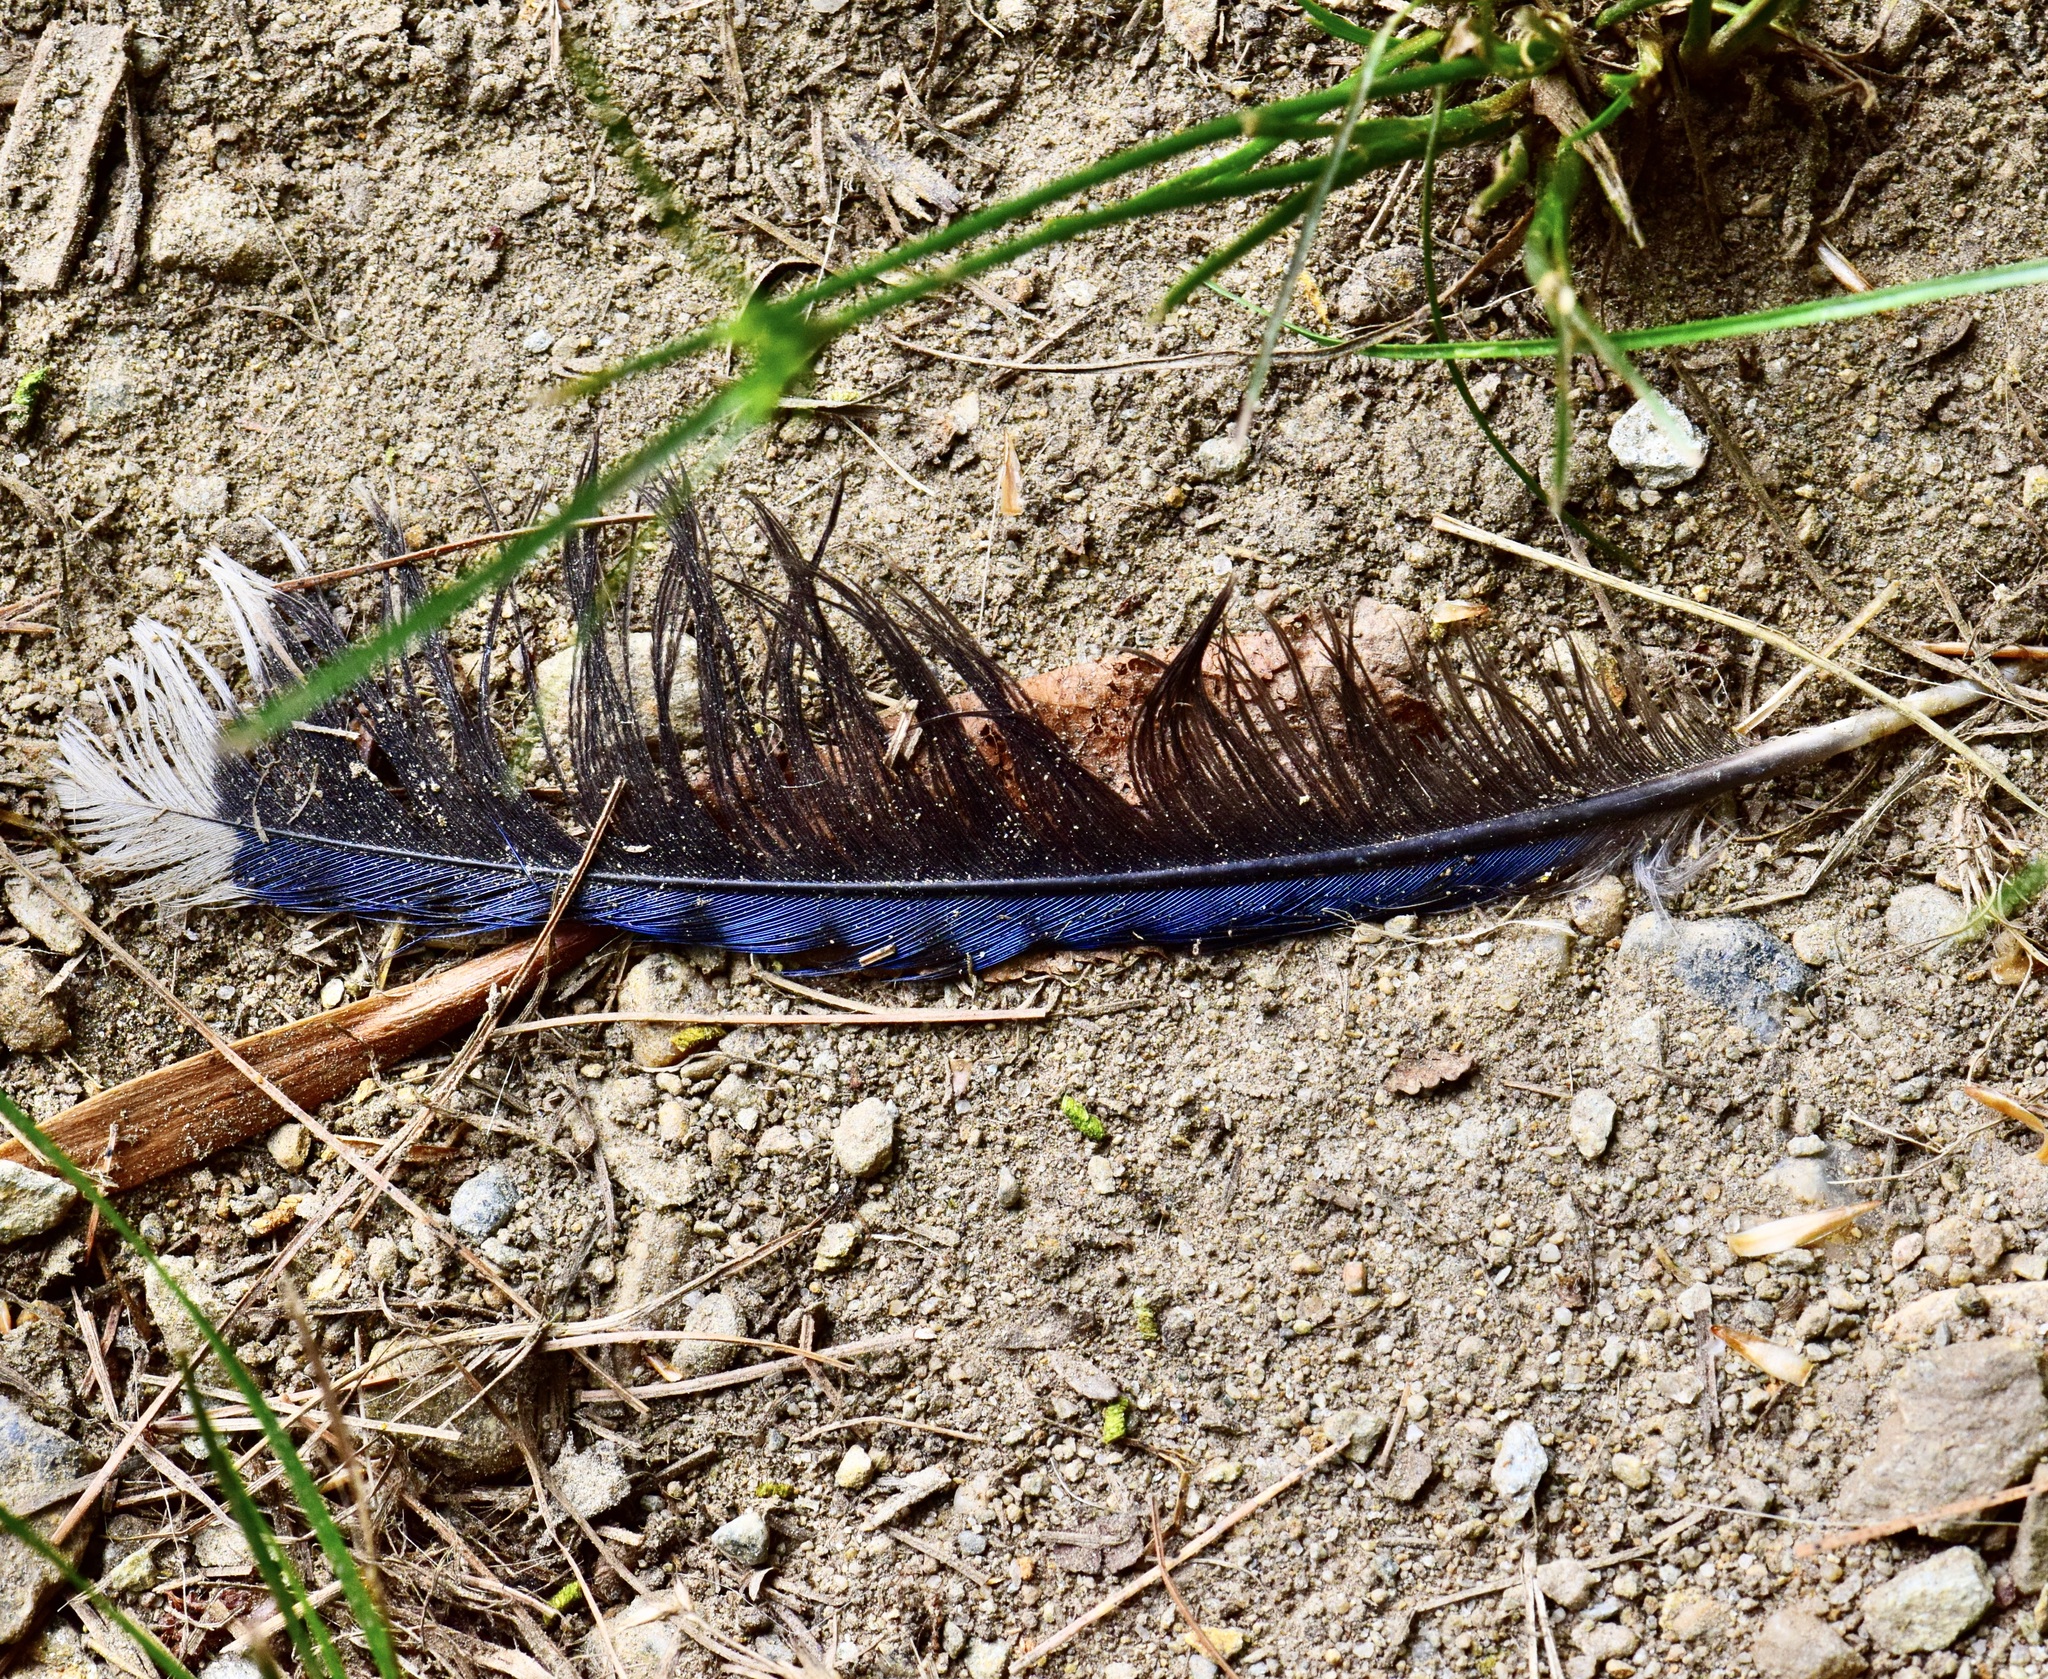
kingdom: Animalia
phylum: Chordata
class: Aves
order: Passeriformes
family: Corvidae
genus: Cyanocitta
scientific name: Cyanocitta cristata
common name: Blue jay
